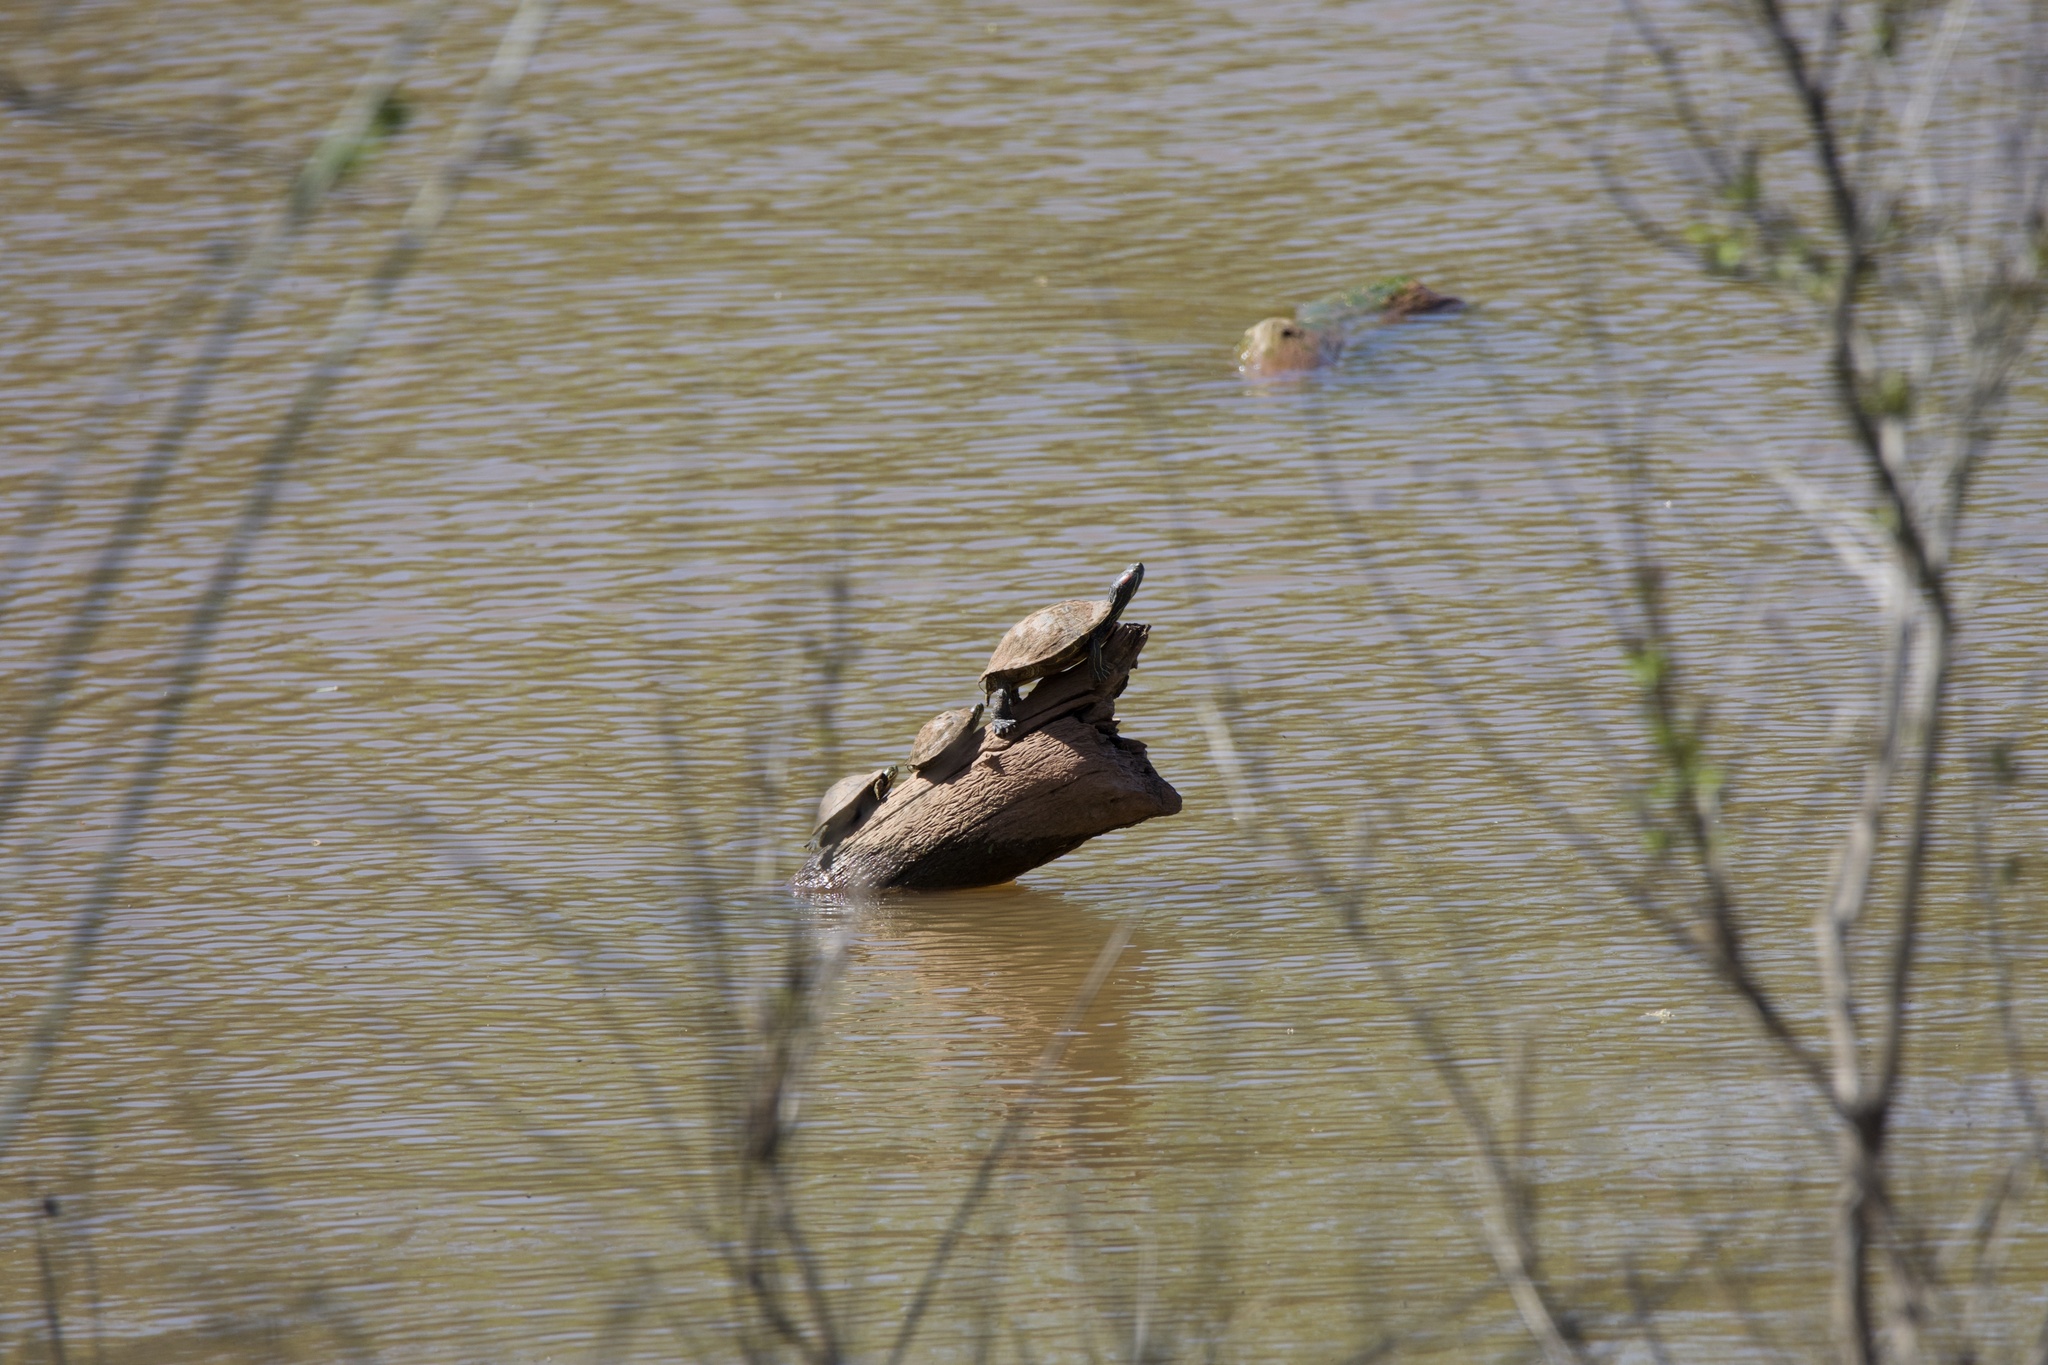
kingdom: Animalia
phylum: Chordata
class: Testudines
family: Emydidae
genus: Trachemys
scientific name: Trachemys scripta
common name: Slider
